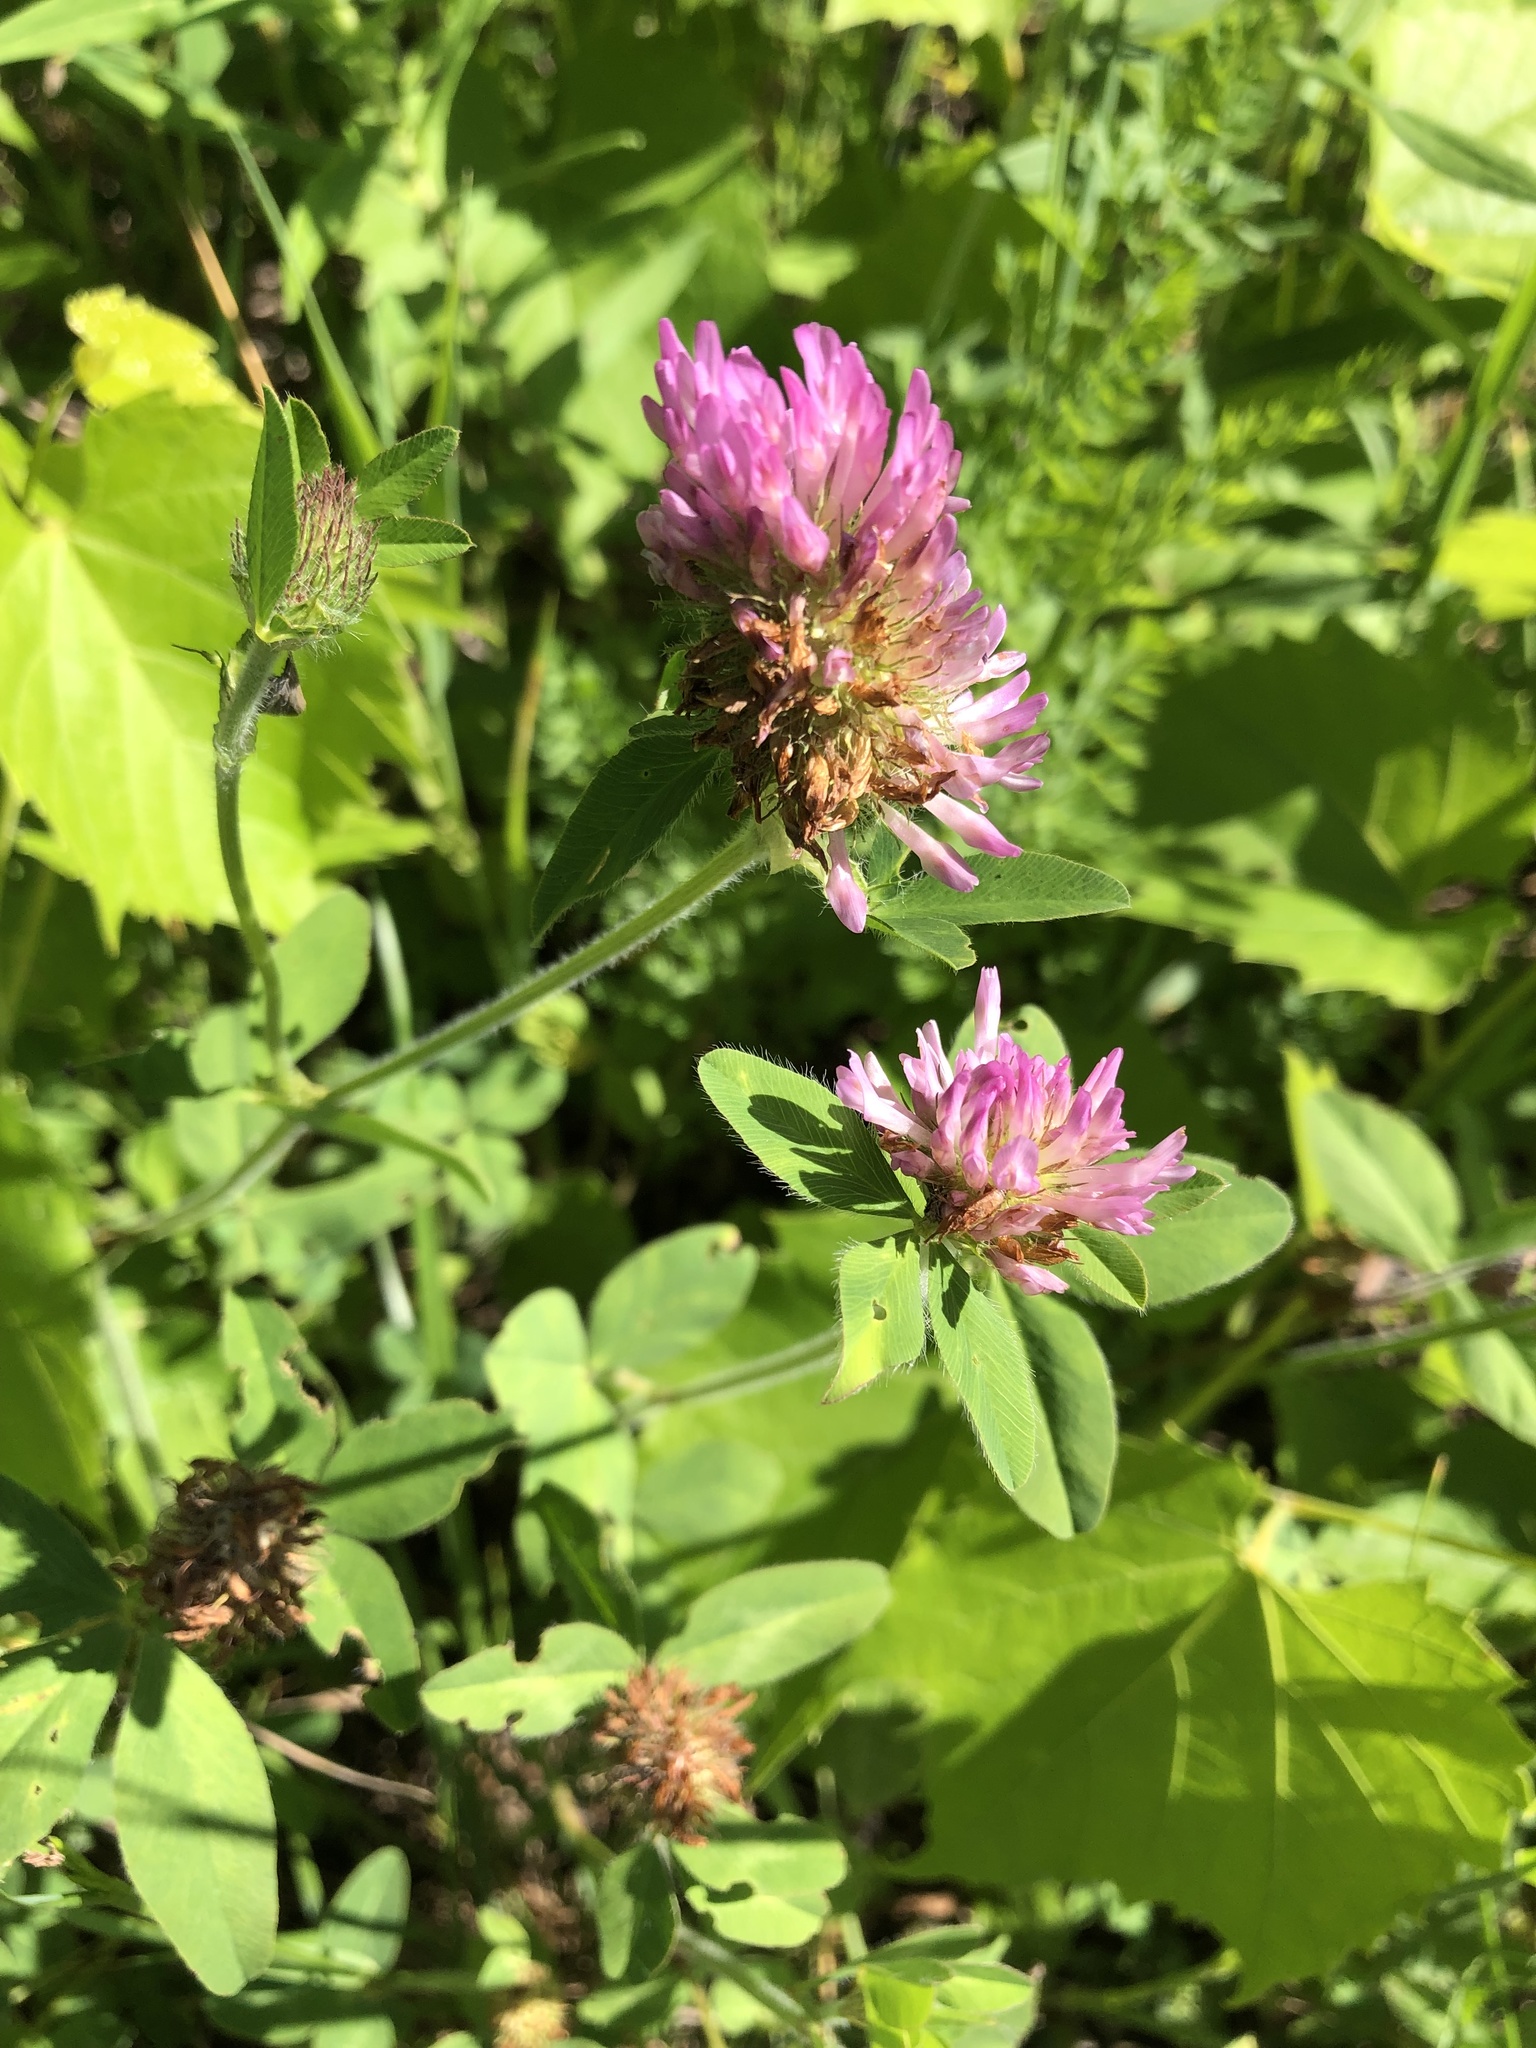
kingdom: Plantae
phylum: Tracheophyta
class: Magnoliopsida
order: Fabales
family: Fabaceae
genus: Trifolium
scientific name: Trifolium pratense
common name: Red clover
